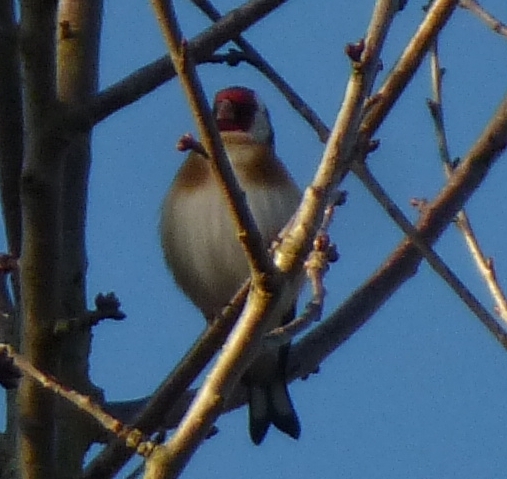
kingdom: Animalia
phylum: Chordata
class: Aves
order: Passeriformes
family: Fringillidae
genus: Carduelis
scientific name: Carduelis carduelis
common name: European goldfinch
